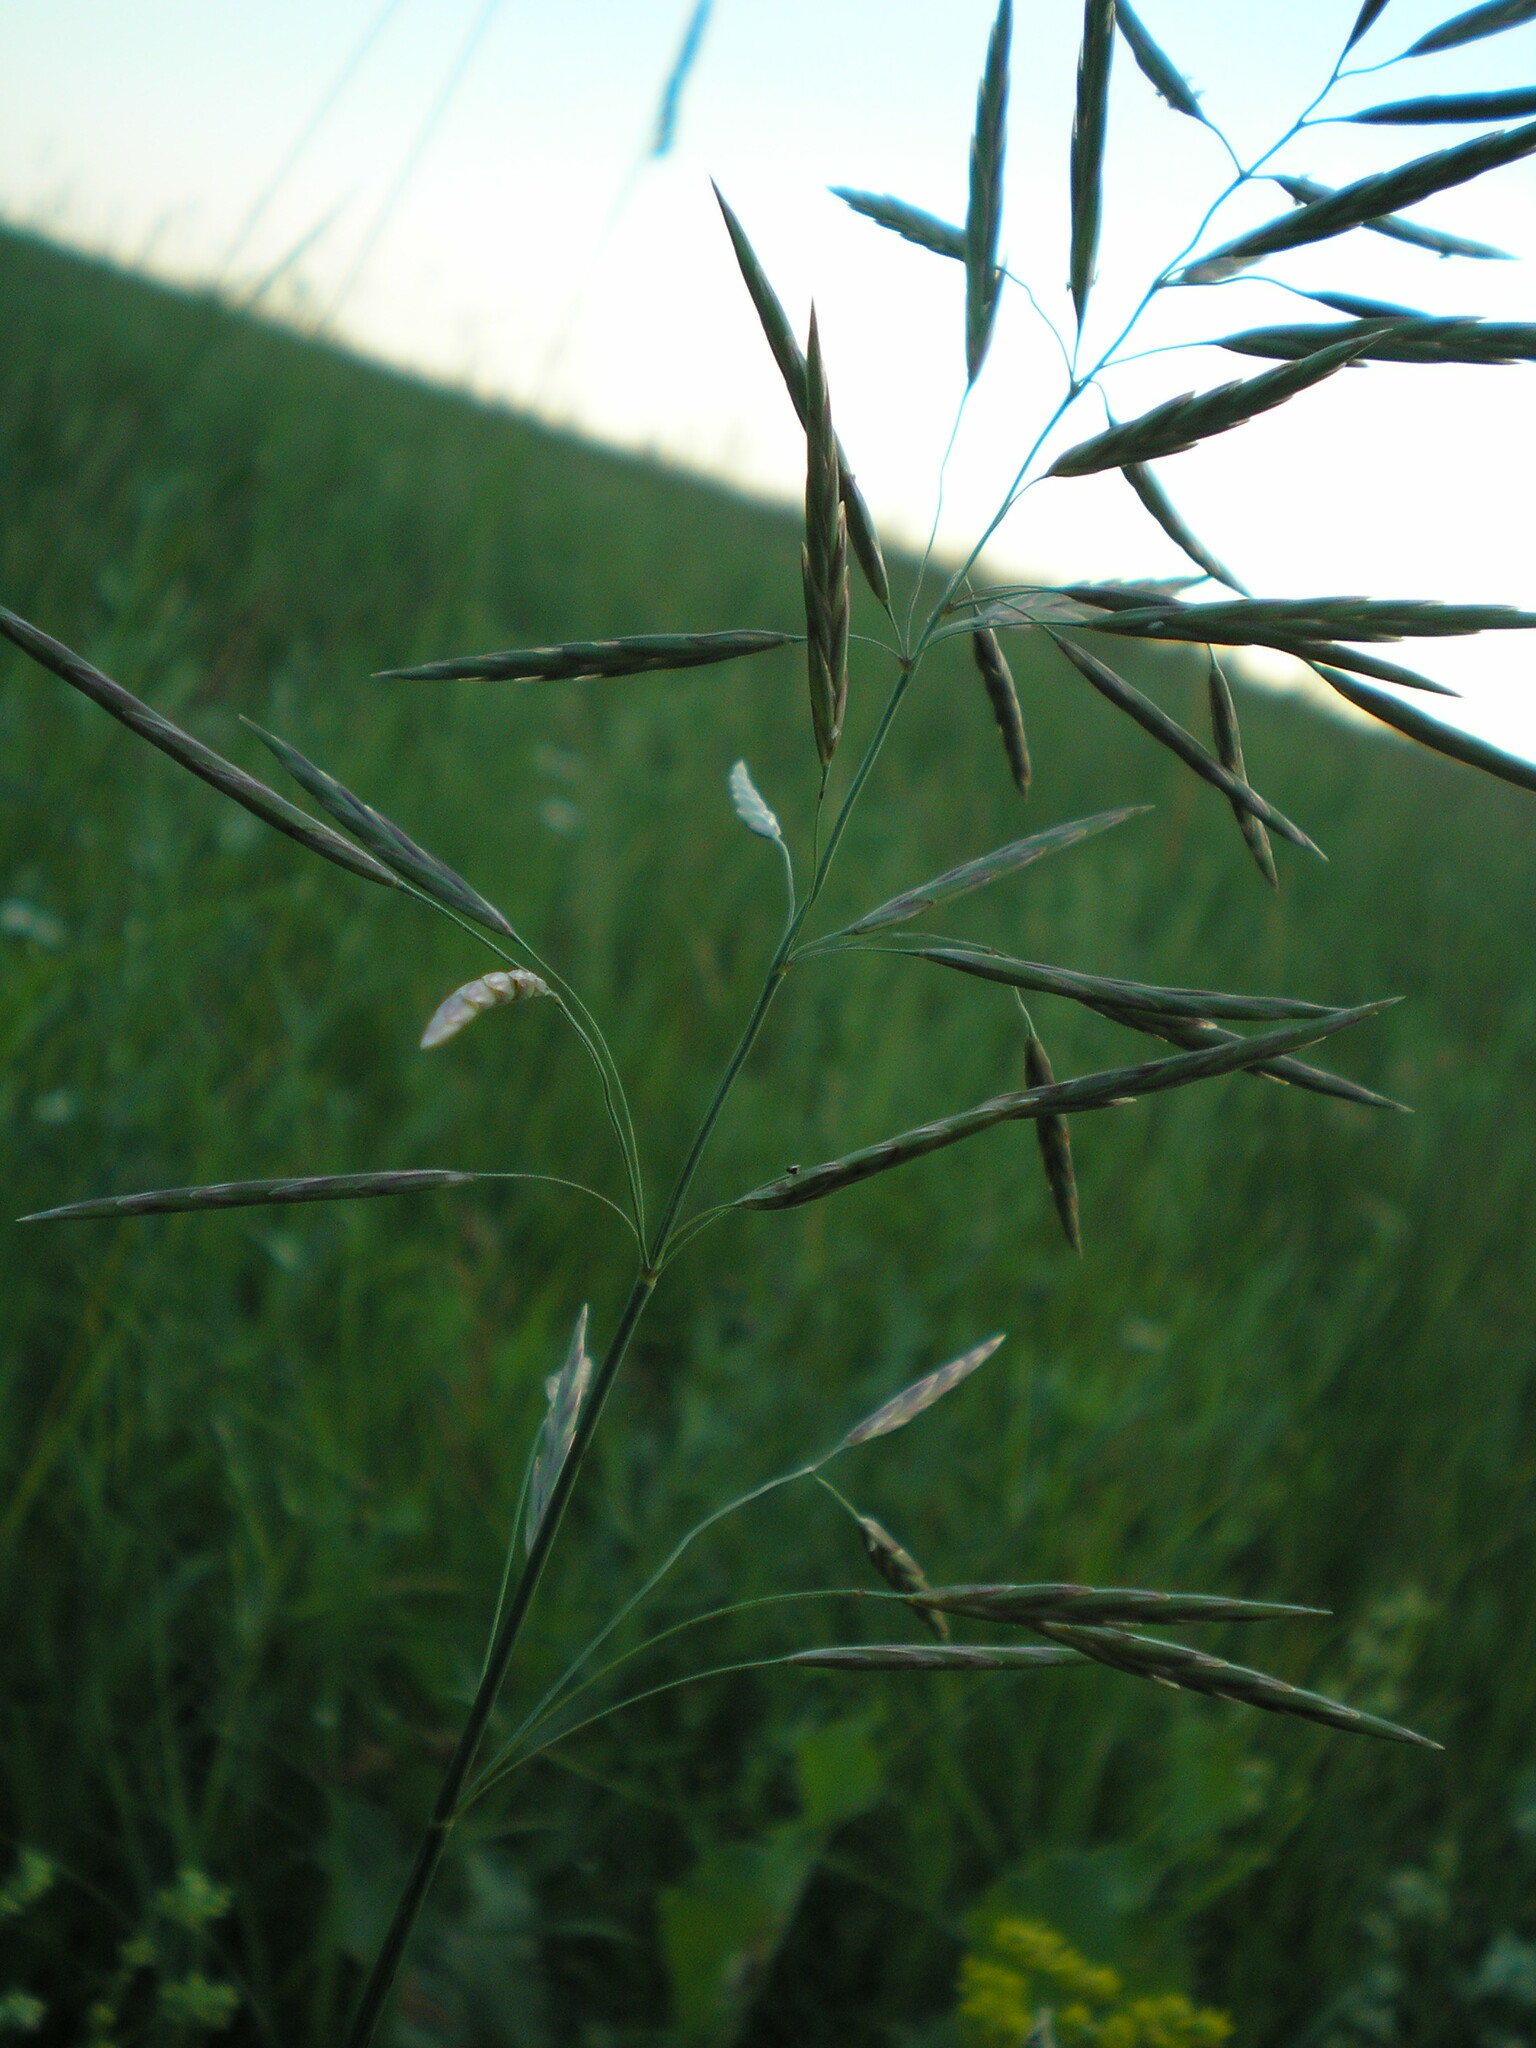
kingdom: Plantae
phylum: Tracheophyta
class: Liliopsida
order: Poales
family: Poaceae
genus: Bromus
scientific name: Bromus inermis
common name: Smooth brome
